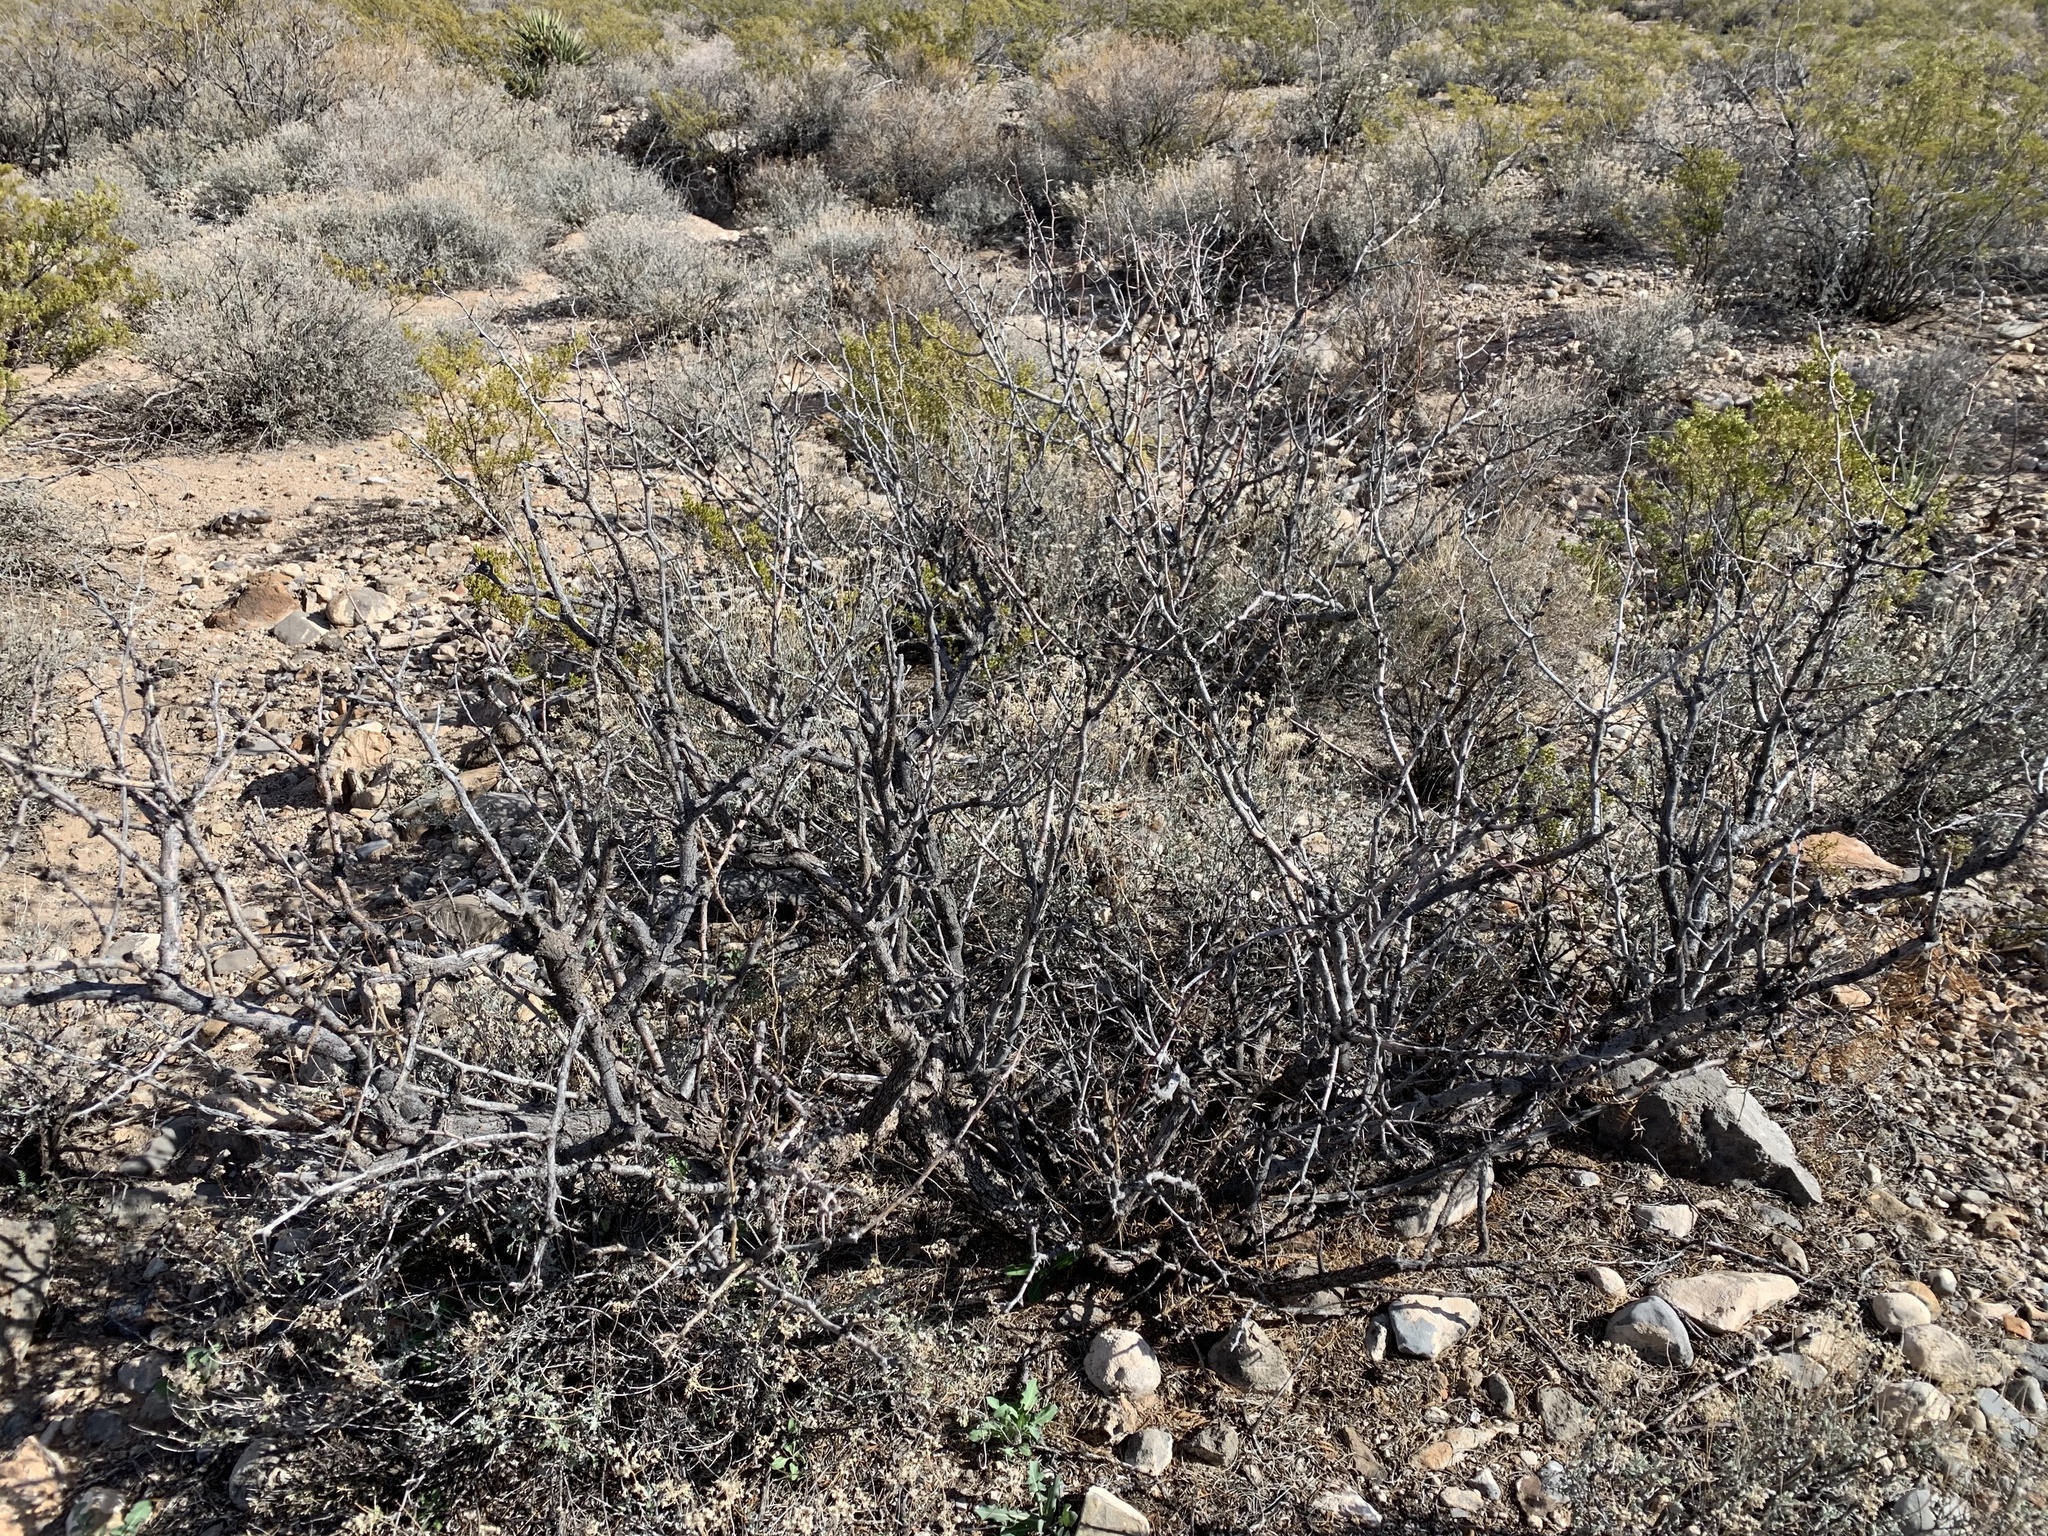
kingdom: Plantae
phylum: Tracheophyta
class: Magnoliopsida
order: Fabales
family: Fabaceae
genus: Prosopis
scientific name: Prosopis glandulosa
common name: Honey mesquite
